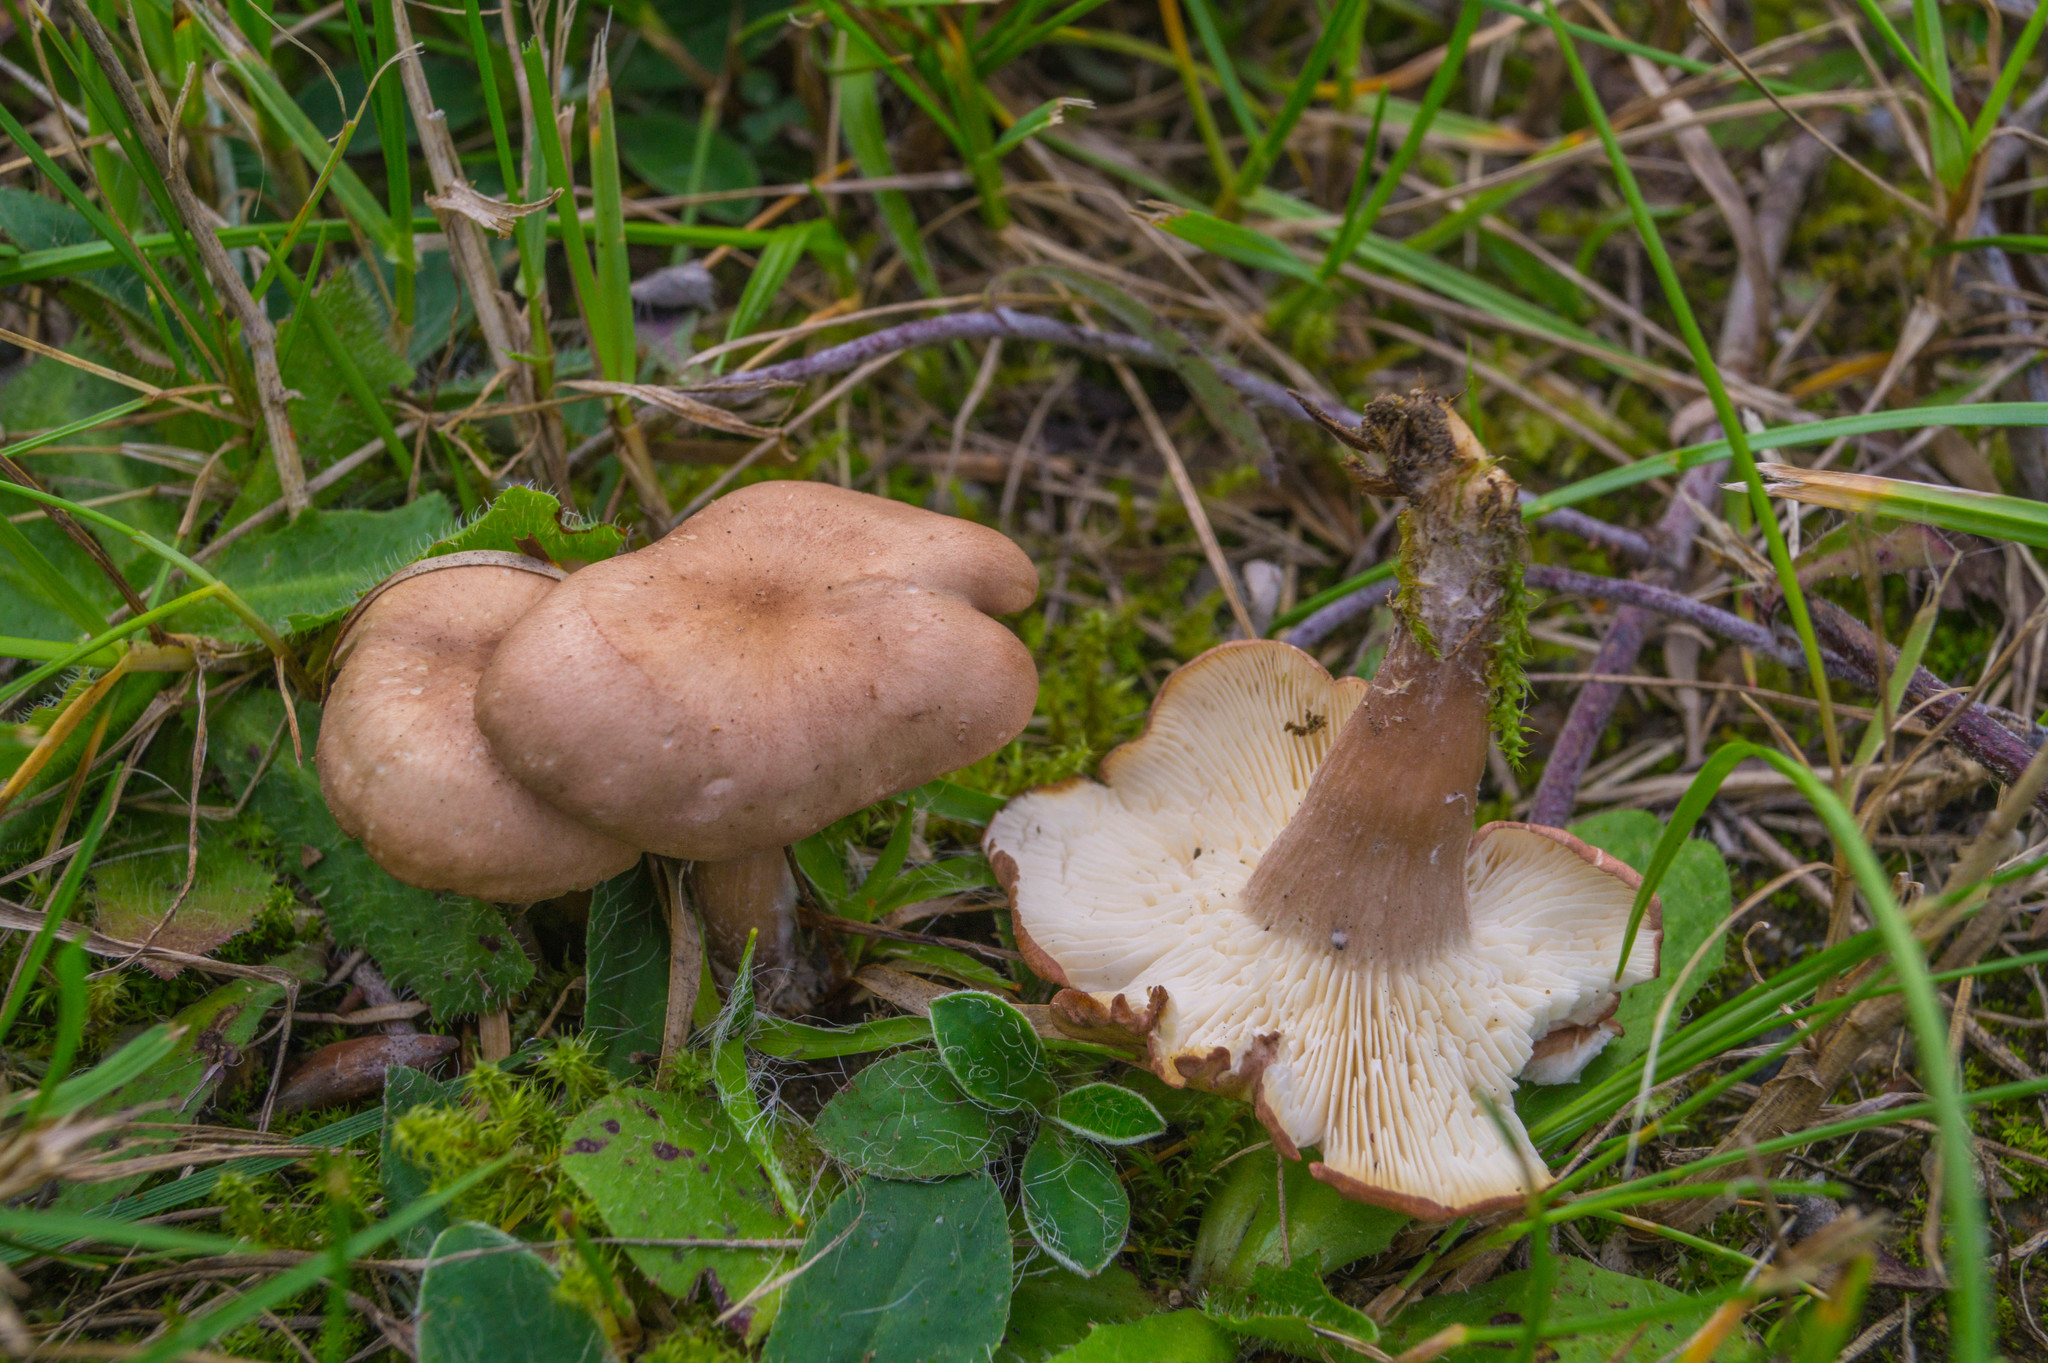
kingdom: Fungi
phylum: Basidiomycota
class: Agaricomycetes
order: Agaricales
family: Lyophyllaceae
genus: Calocybe
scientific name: Calocybe carnea
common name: Pink domecap
